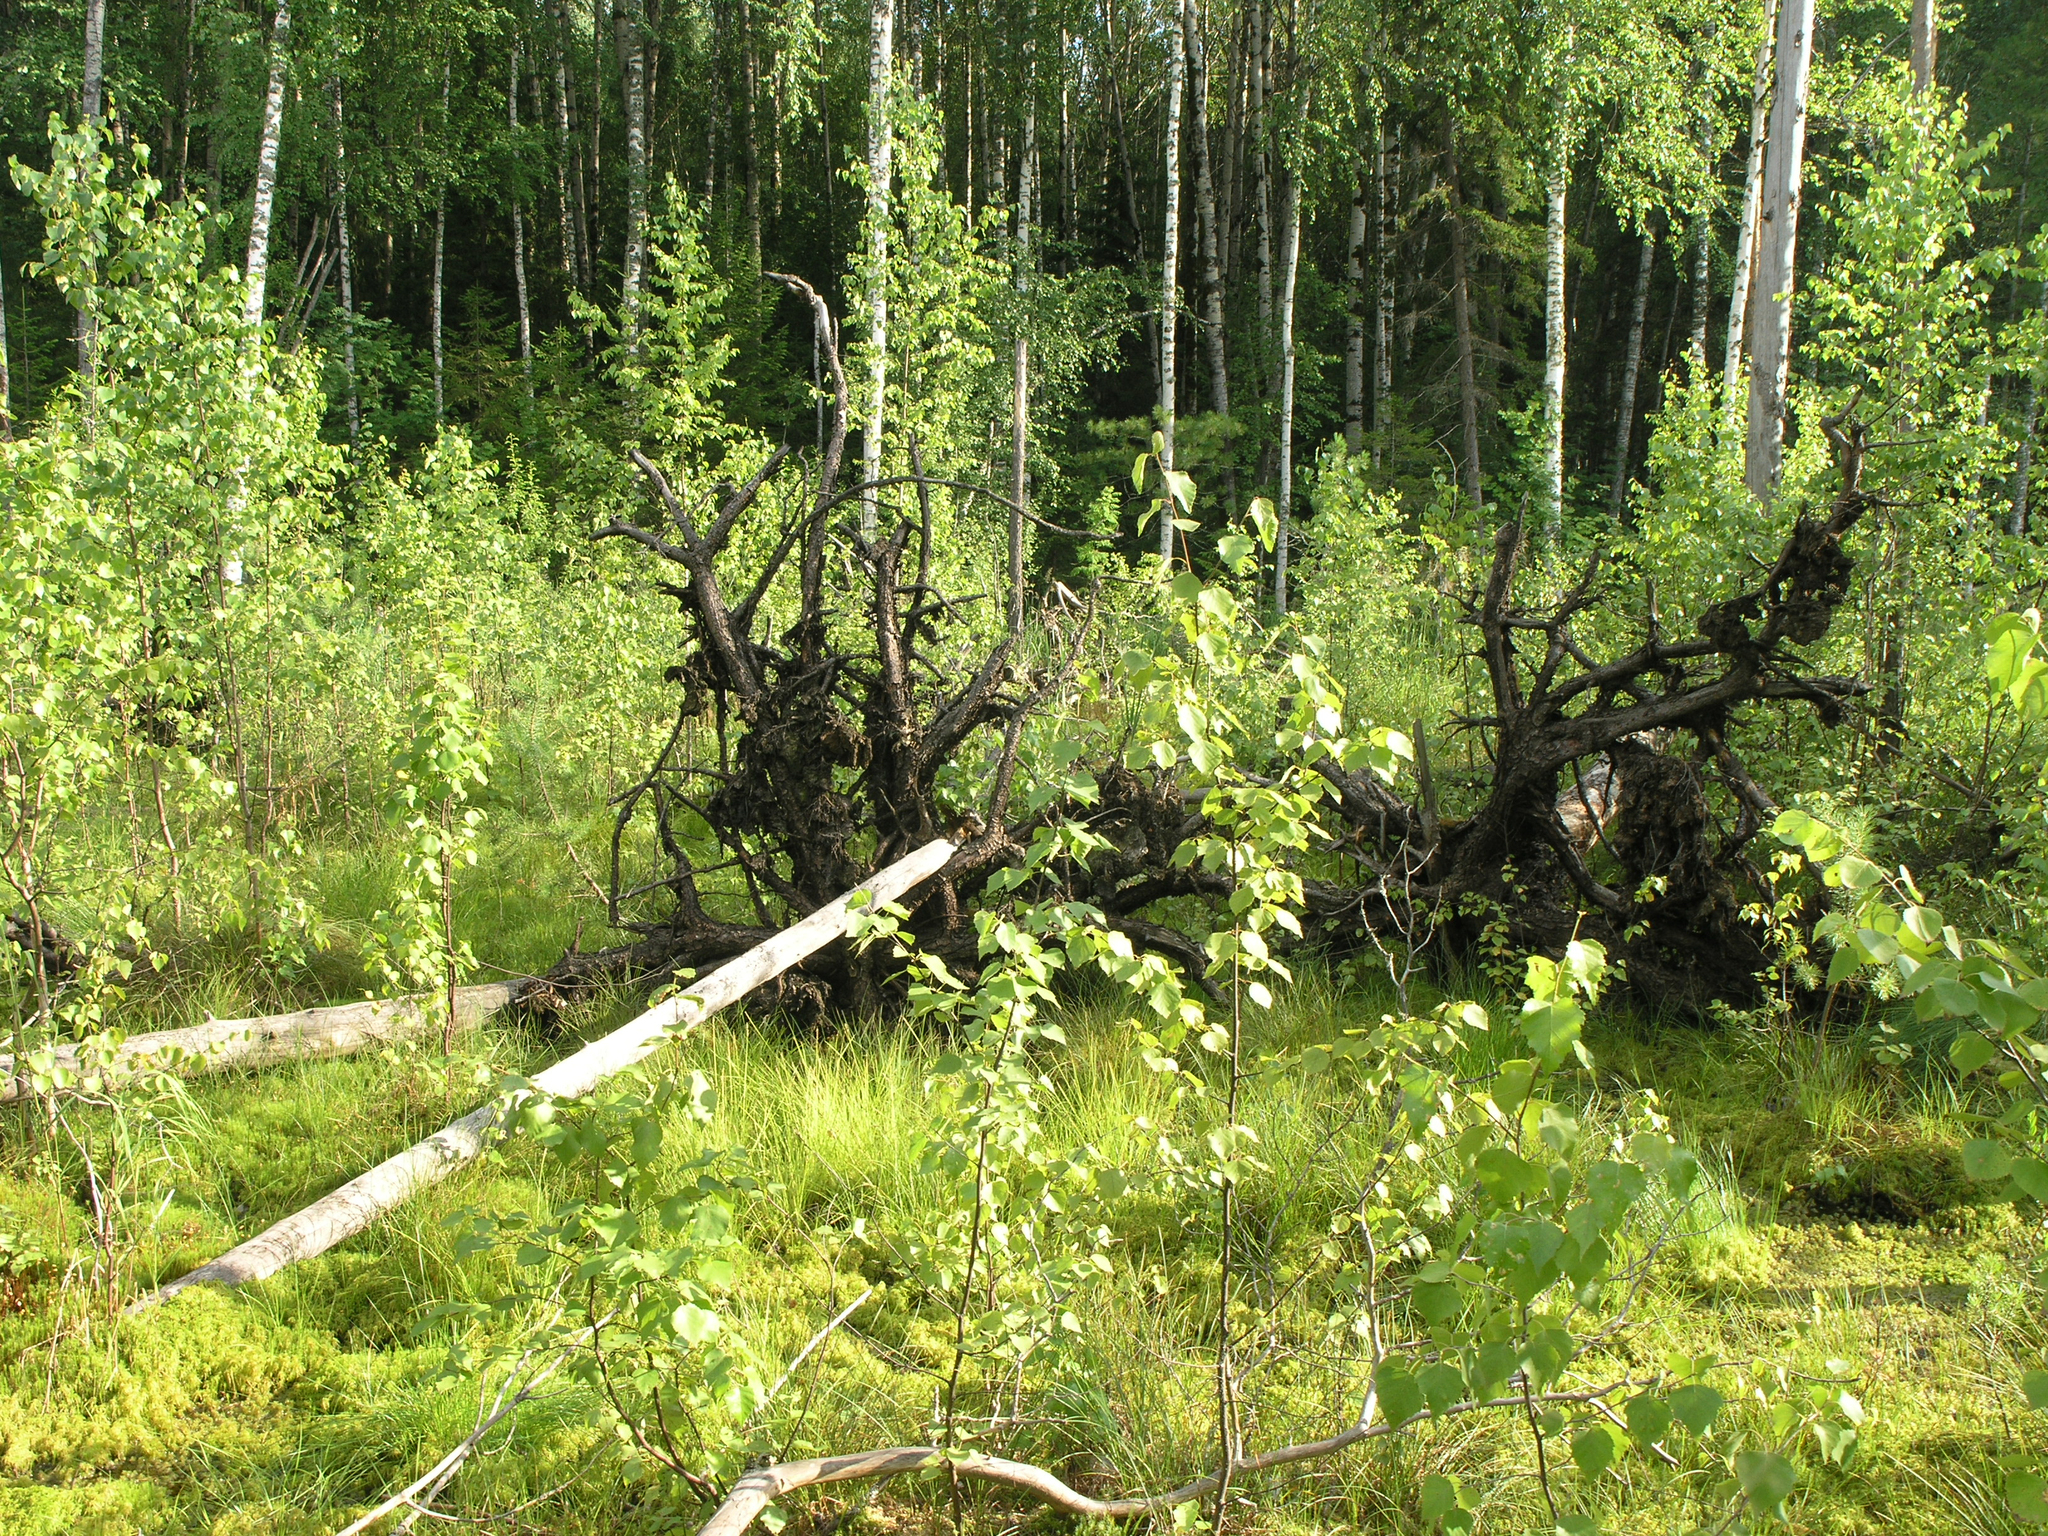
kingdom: Plantae
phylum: Tracheophyta
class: Magnoliopsida
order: Fagales
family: Betulaceae
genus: Betula
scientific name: Betula pubescens
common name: Downy birch
